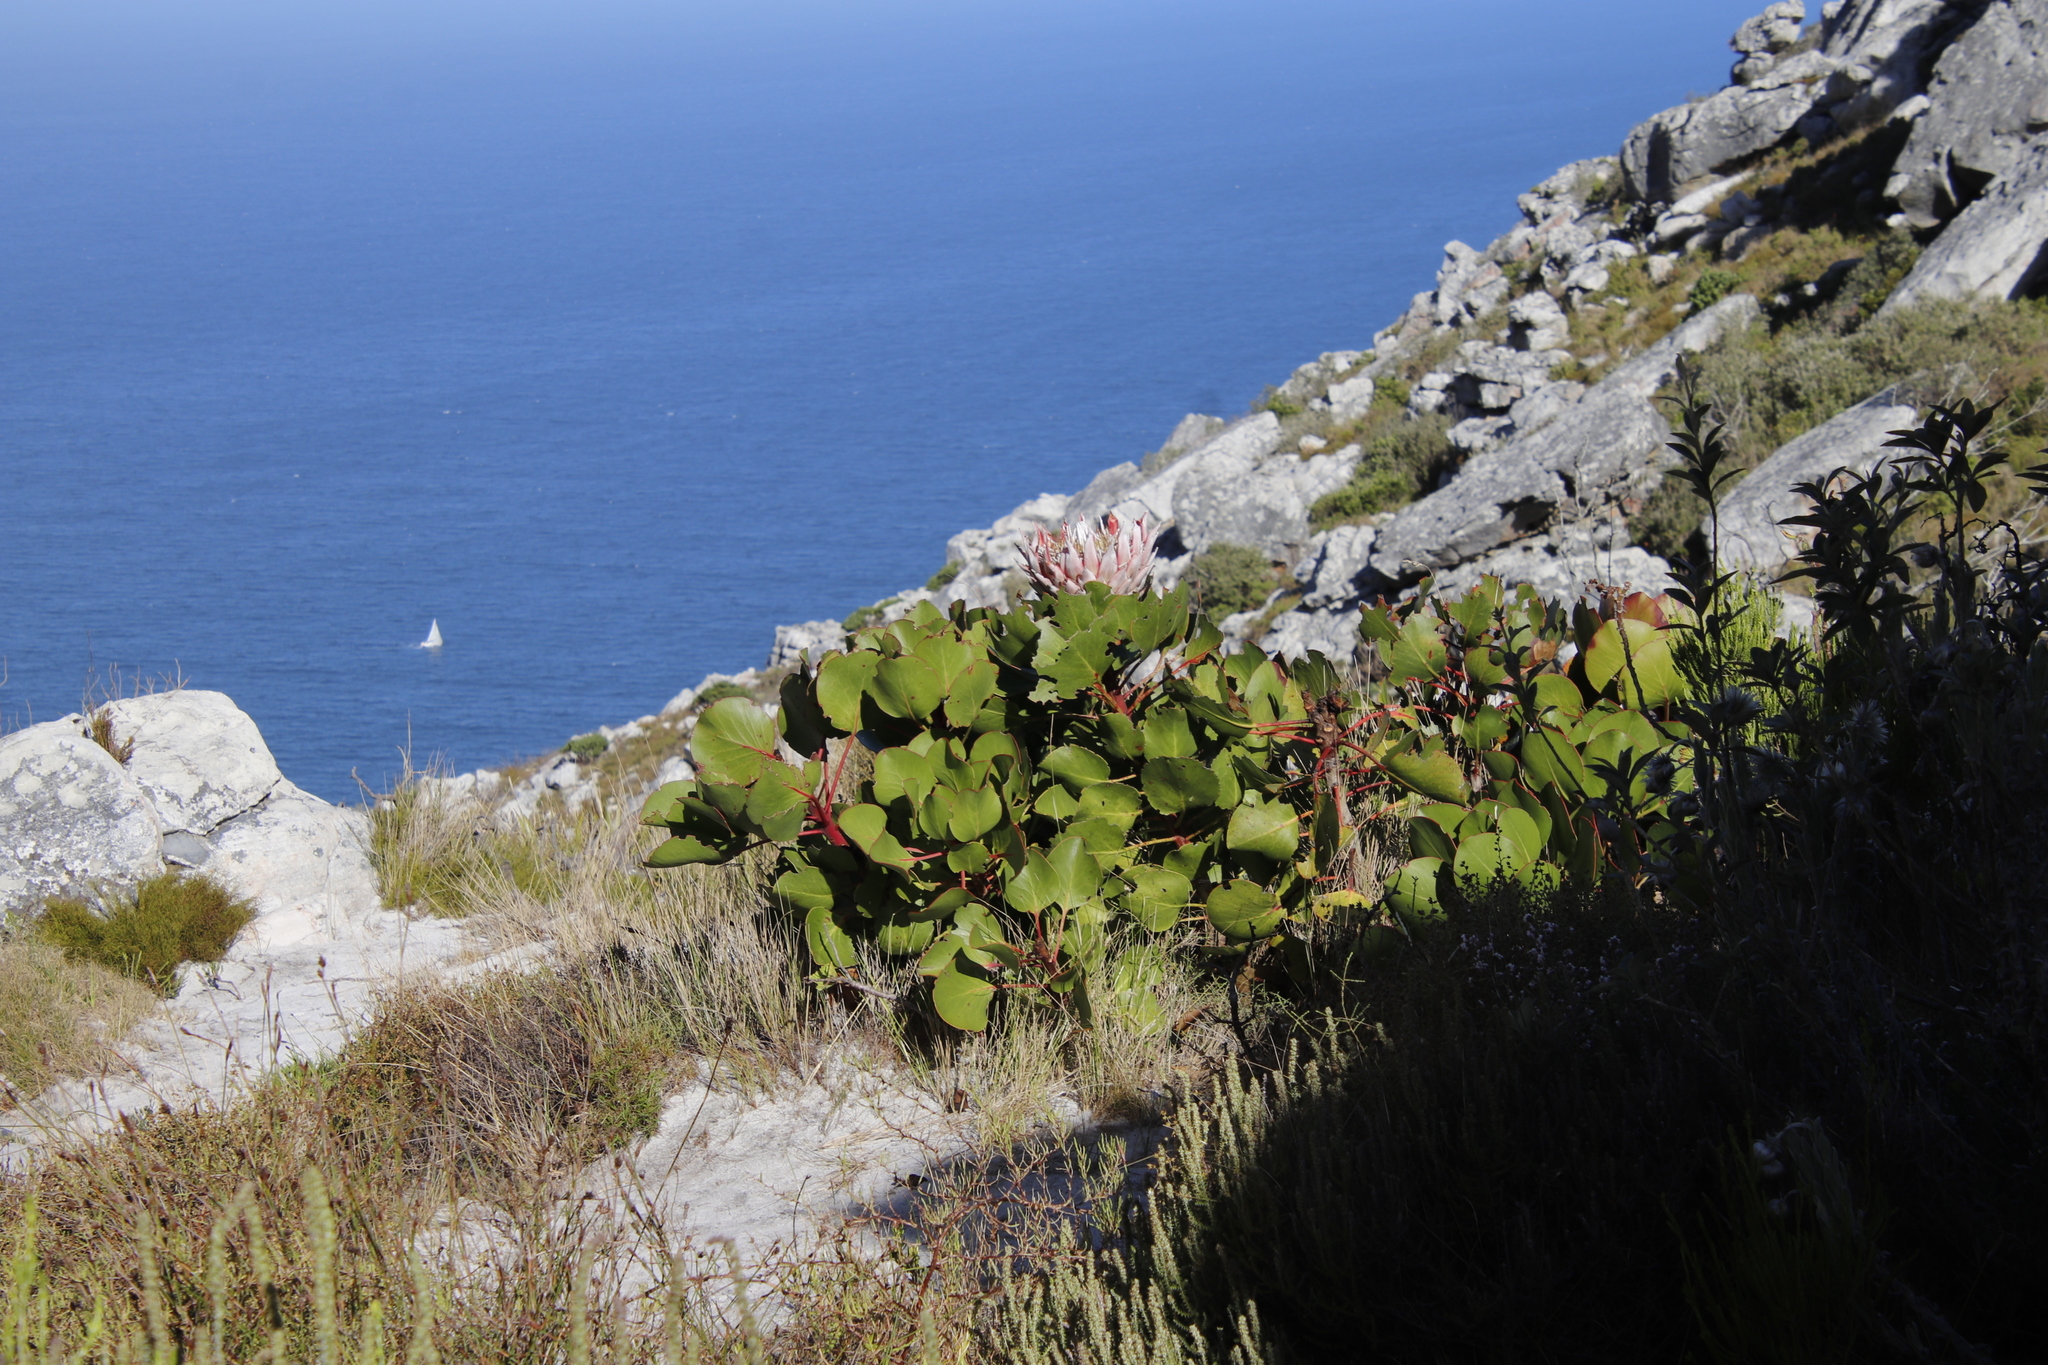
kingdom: Plantae
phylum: Tracheophyta
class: Magnoliopsida
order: Proteales
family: Proteaceae
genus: Protea
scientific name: Protea cynaroides
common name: King protea
